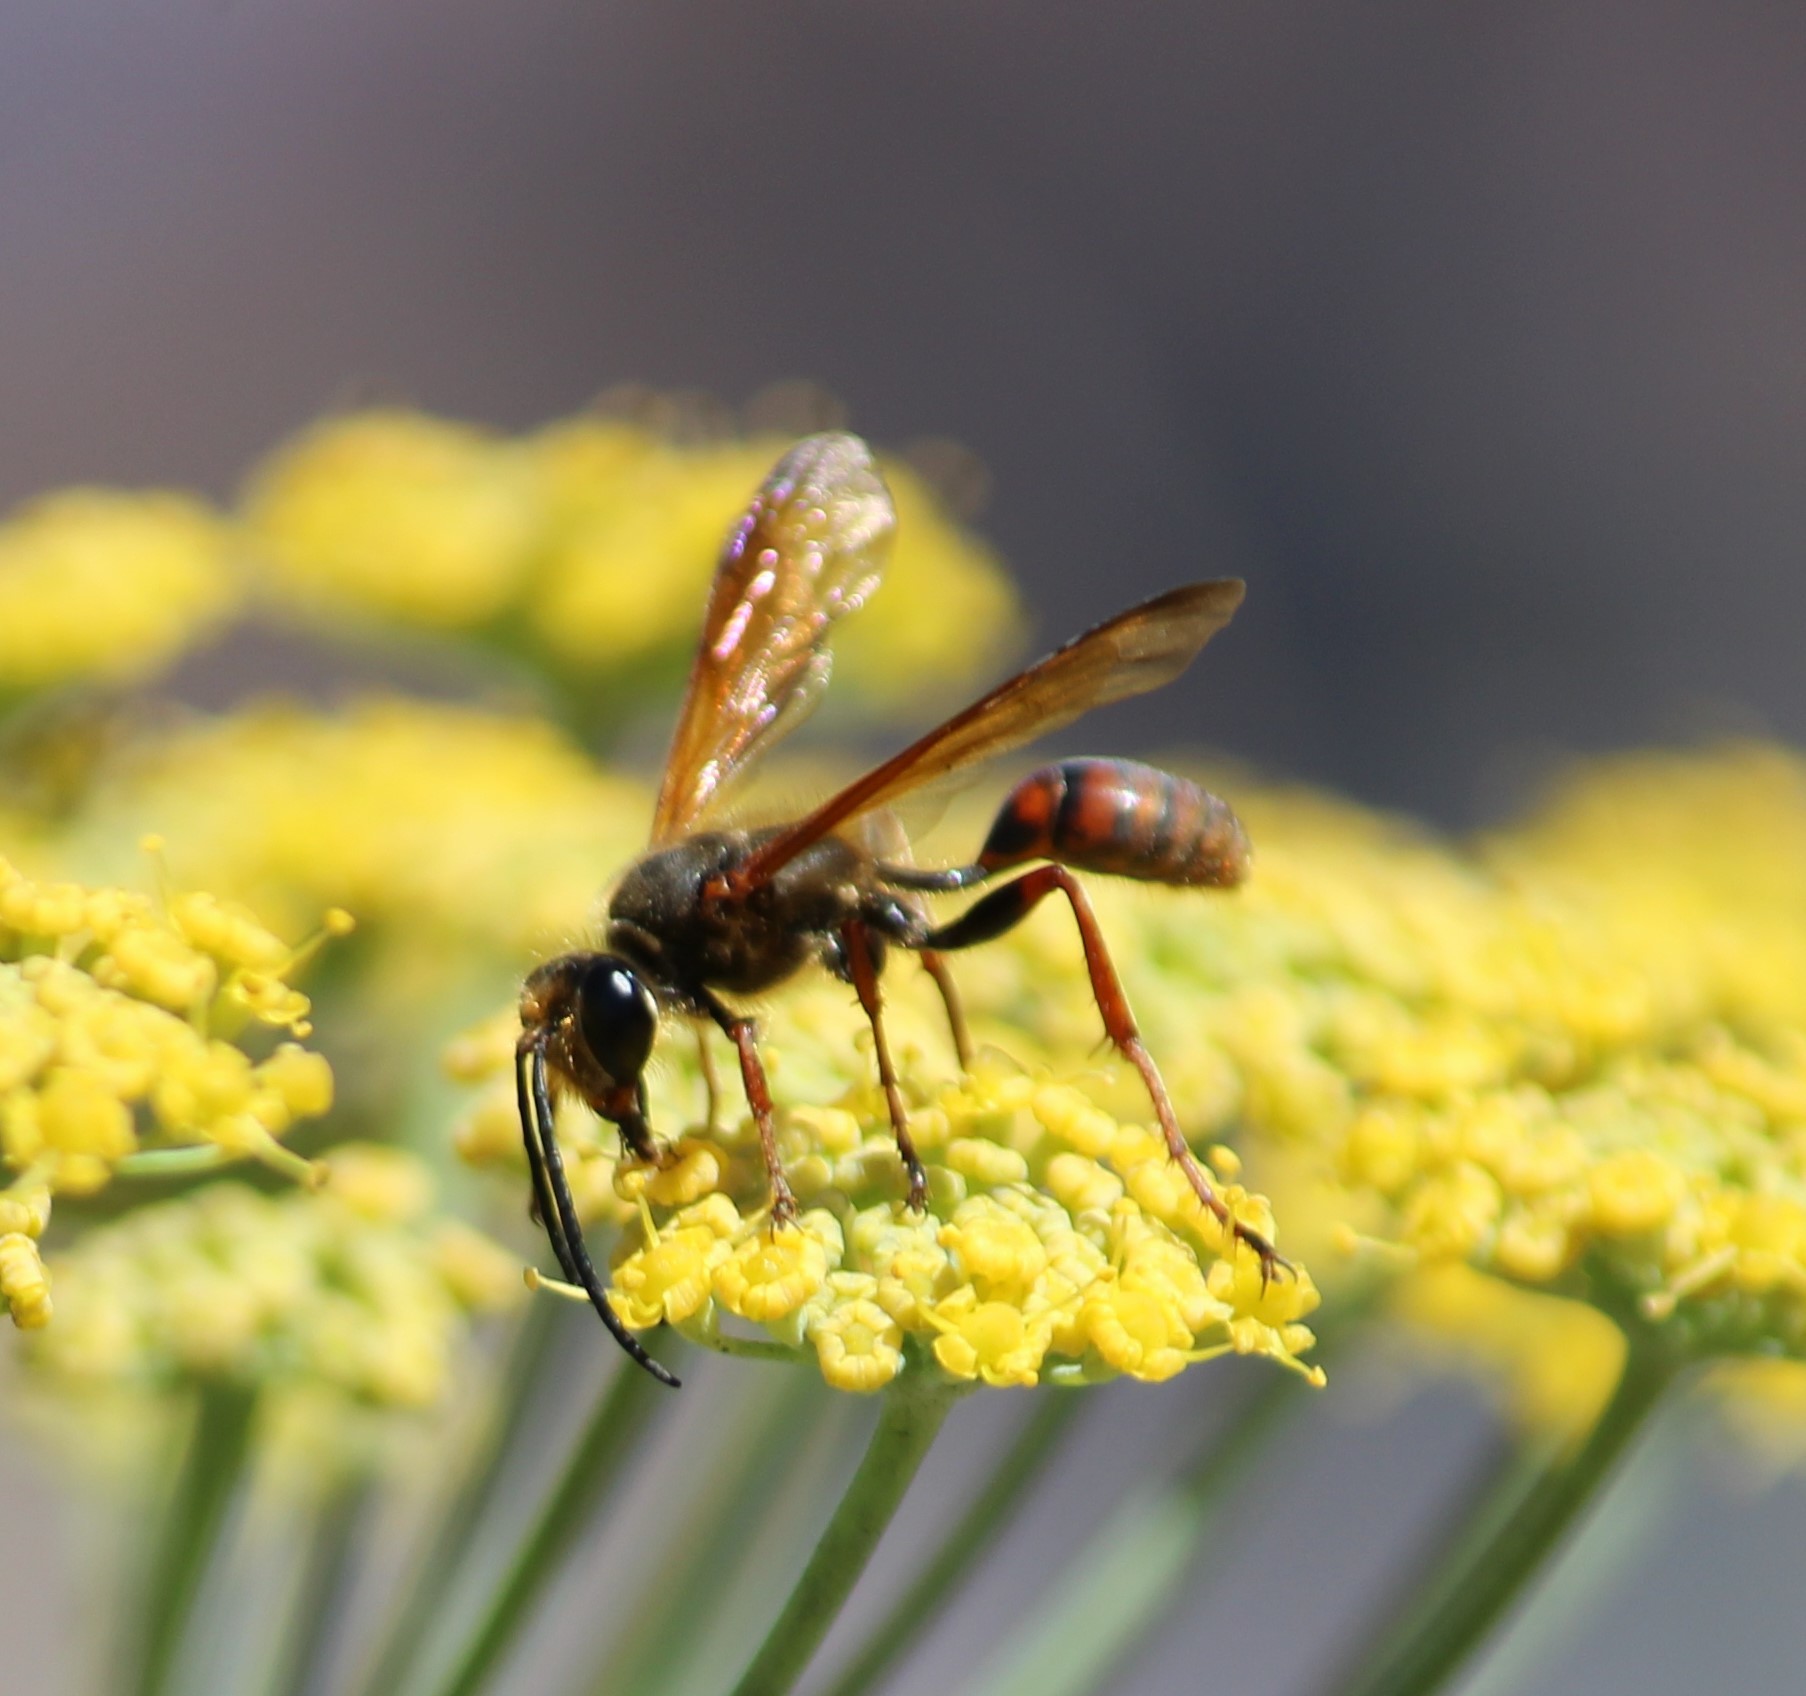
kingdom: Animalia
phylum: Arthropoda
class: Insecta
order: Hymenoptera
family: Sphecidae
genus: Isodontia
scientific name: Isodontia elegans
